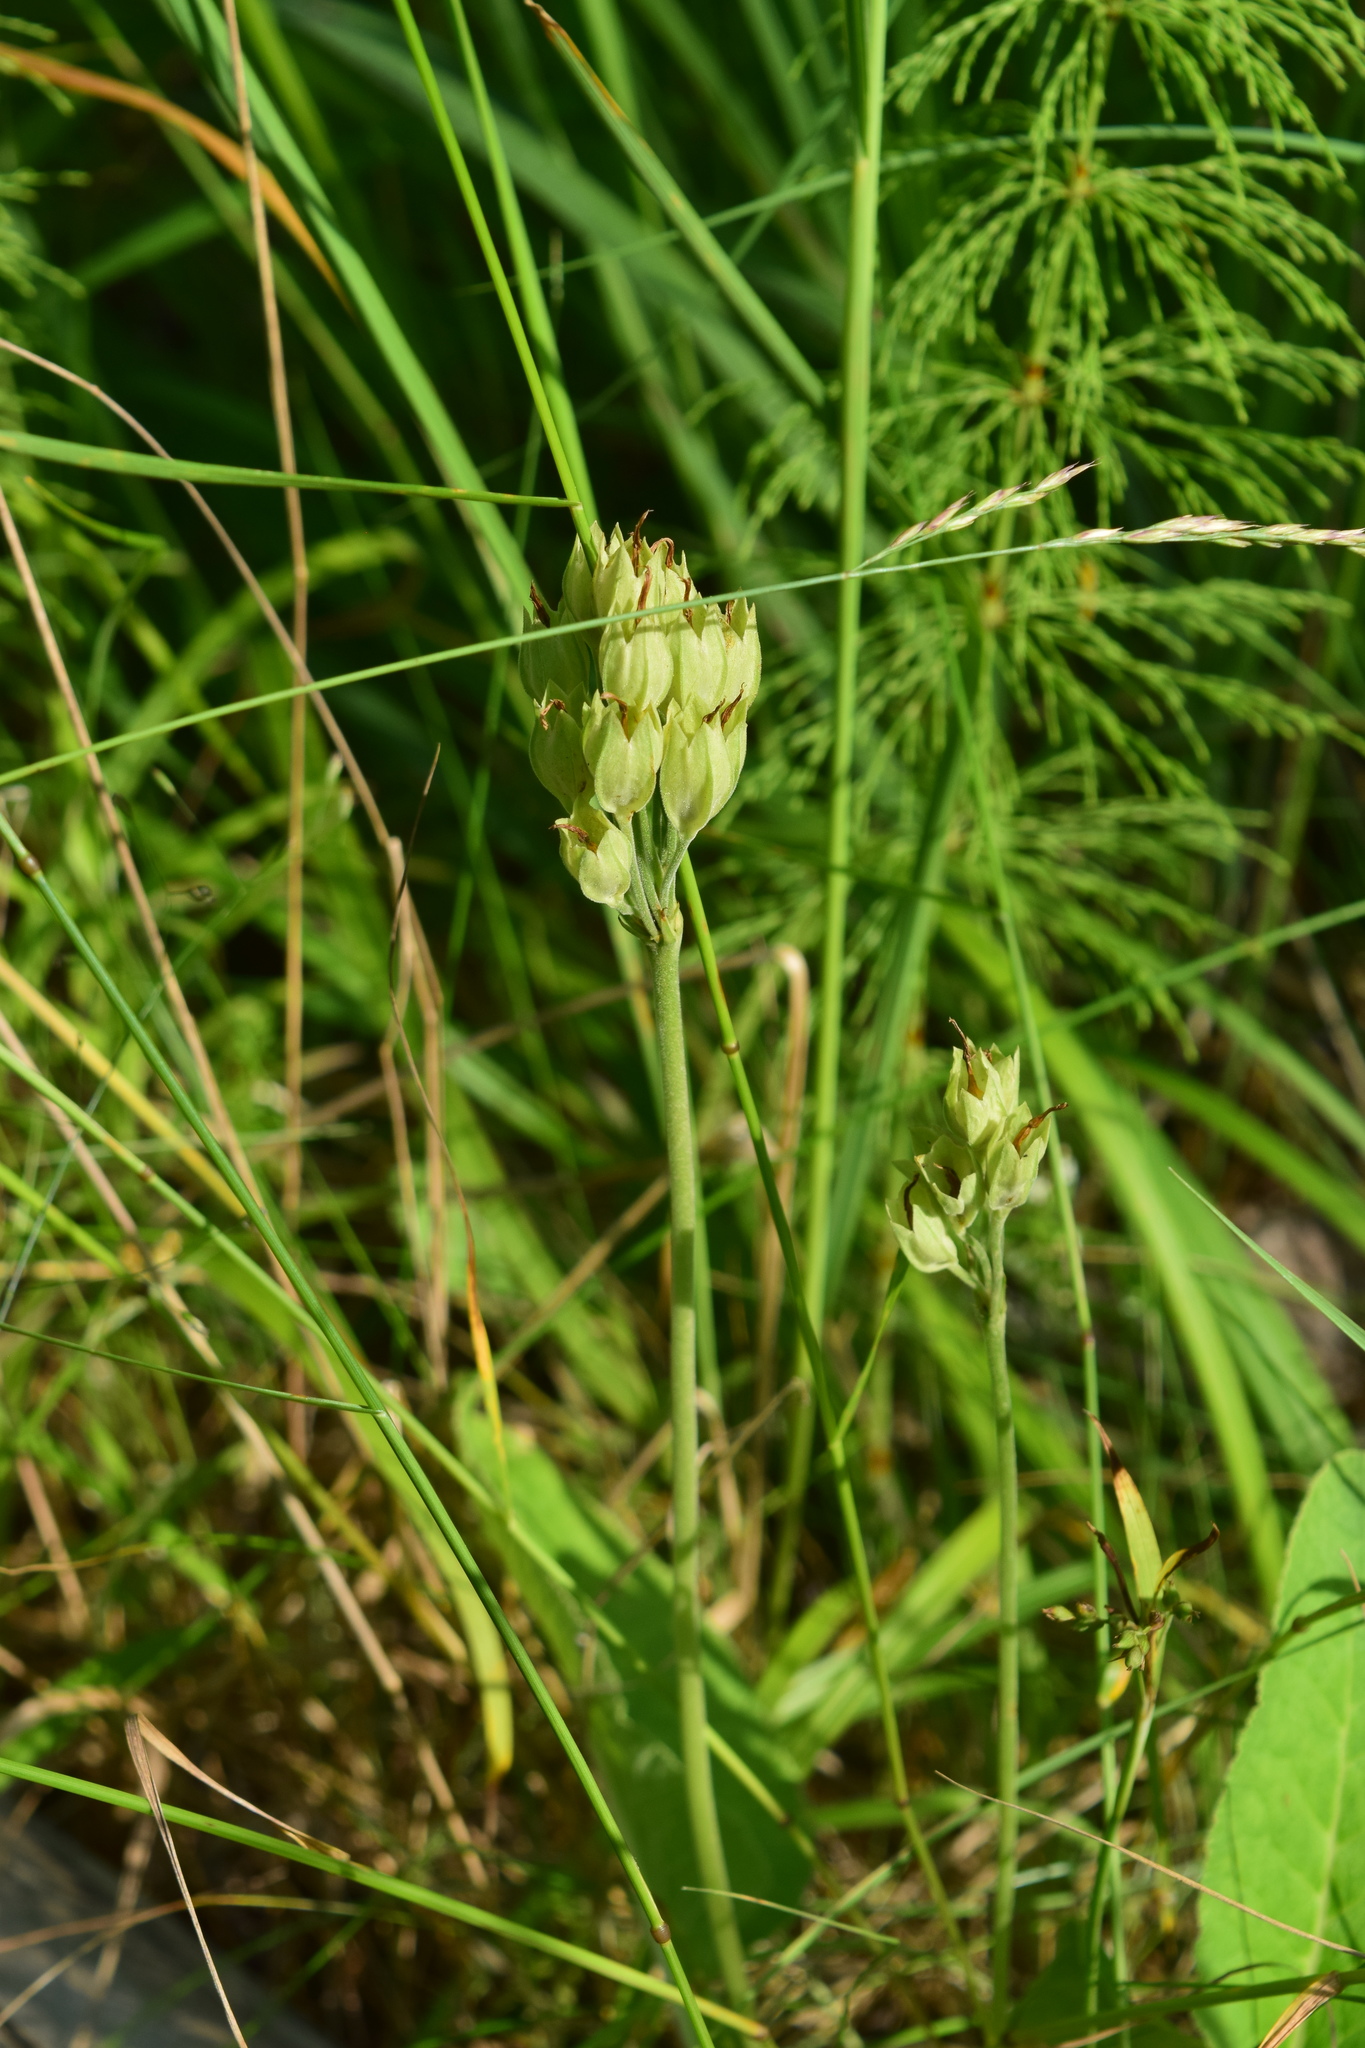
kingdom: Plantae
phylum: Tracheophyta
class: Magnoliopsida
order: Ericales
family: Primulaceae
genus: Primula
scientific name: Primula veris
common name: Cowslip
